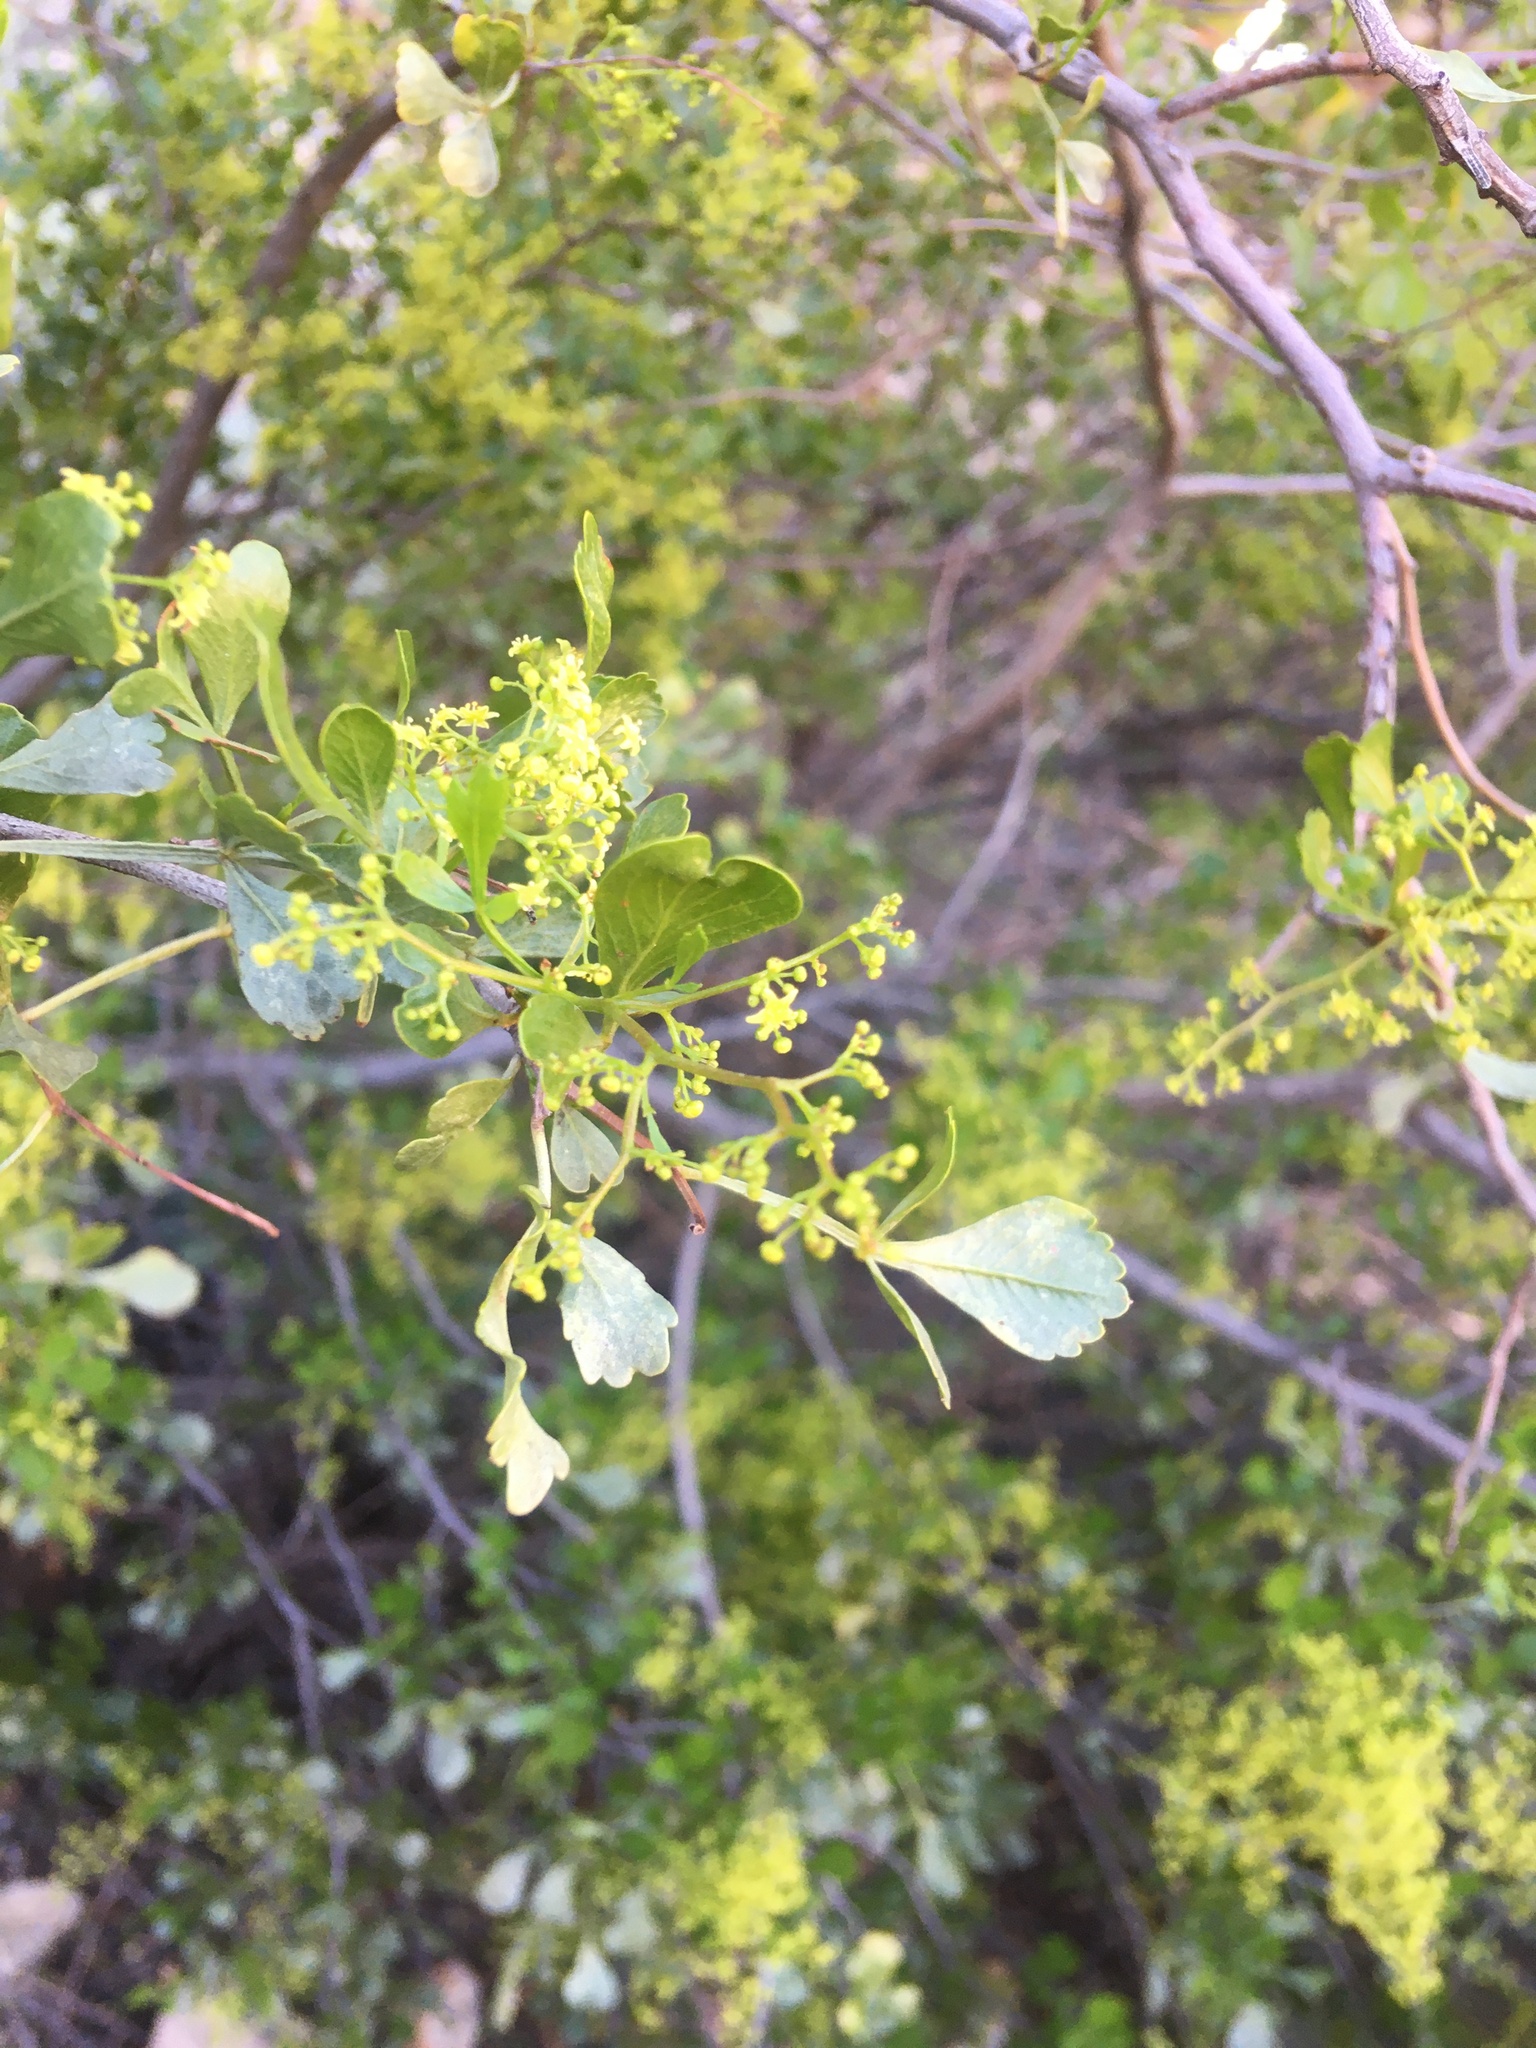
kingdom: Plantae
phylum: Tracheophyta
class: Magnoliopsida
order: Sapindales
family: Anacardiaceae
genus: Searsia
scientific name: Searsia undulata
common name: Namaqua kunibush
